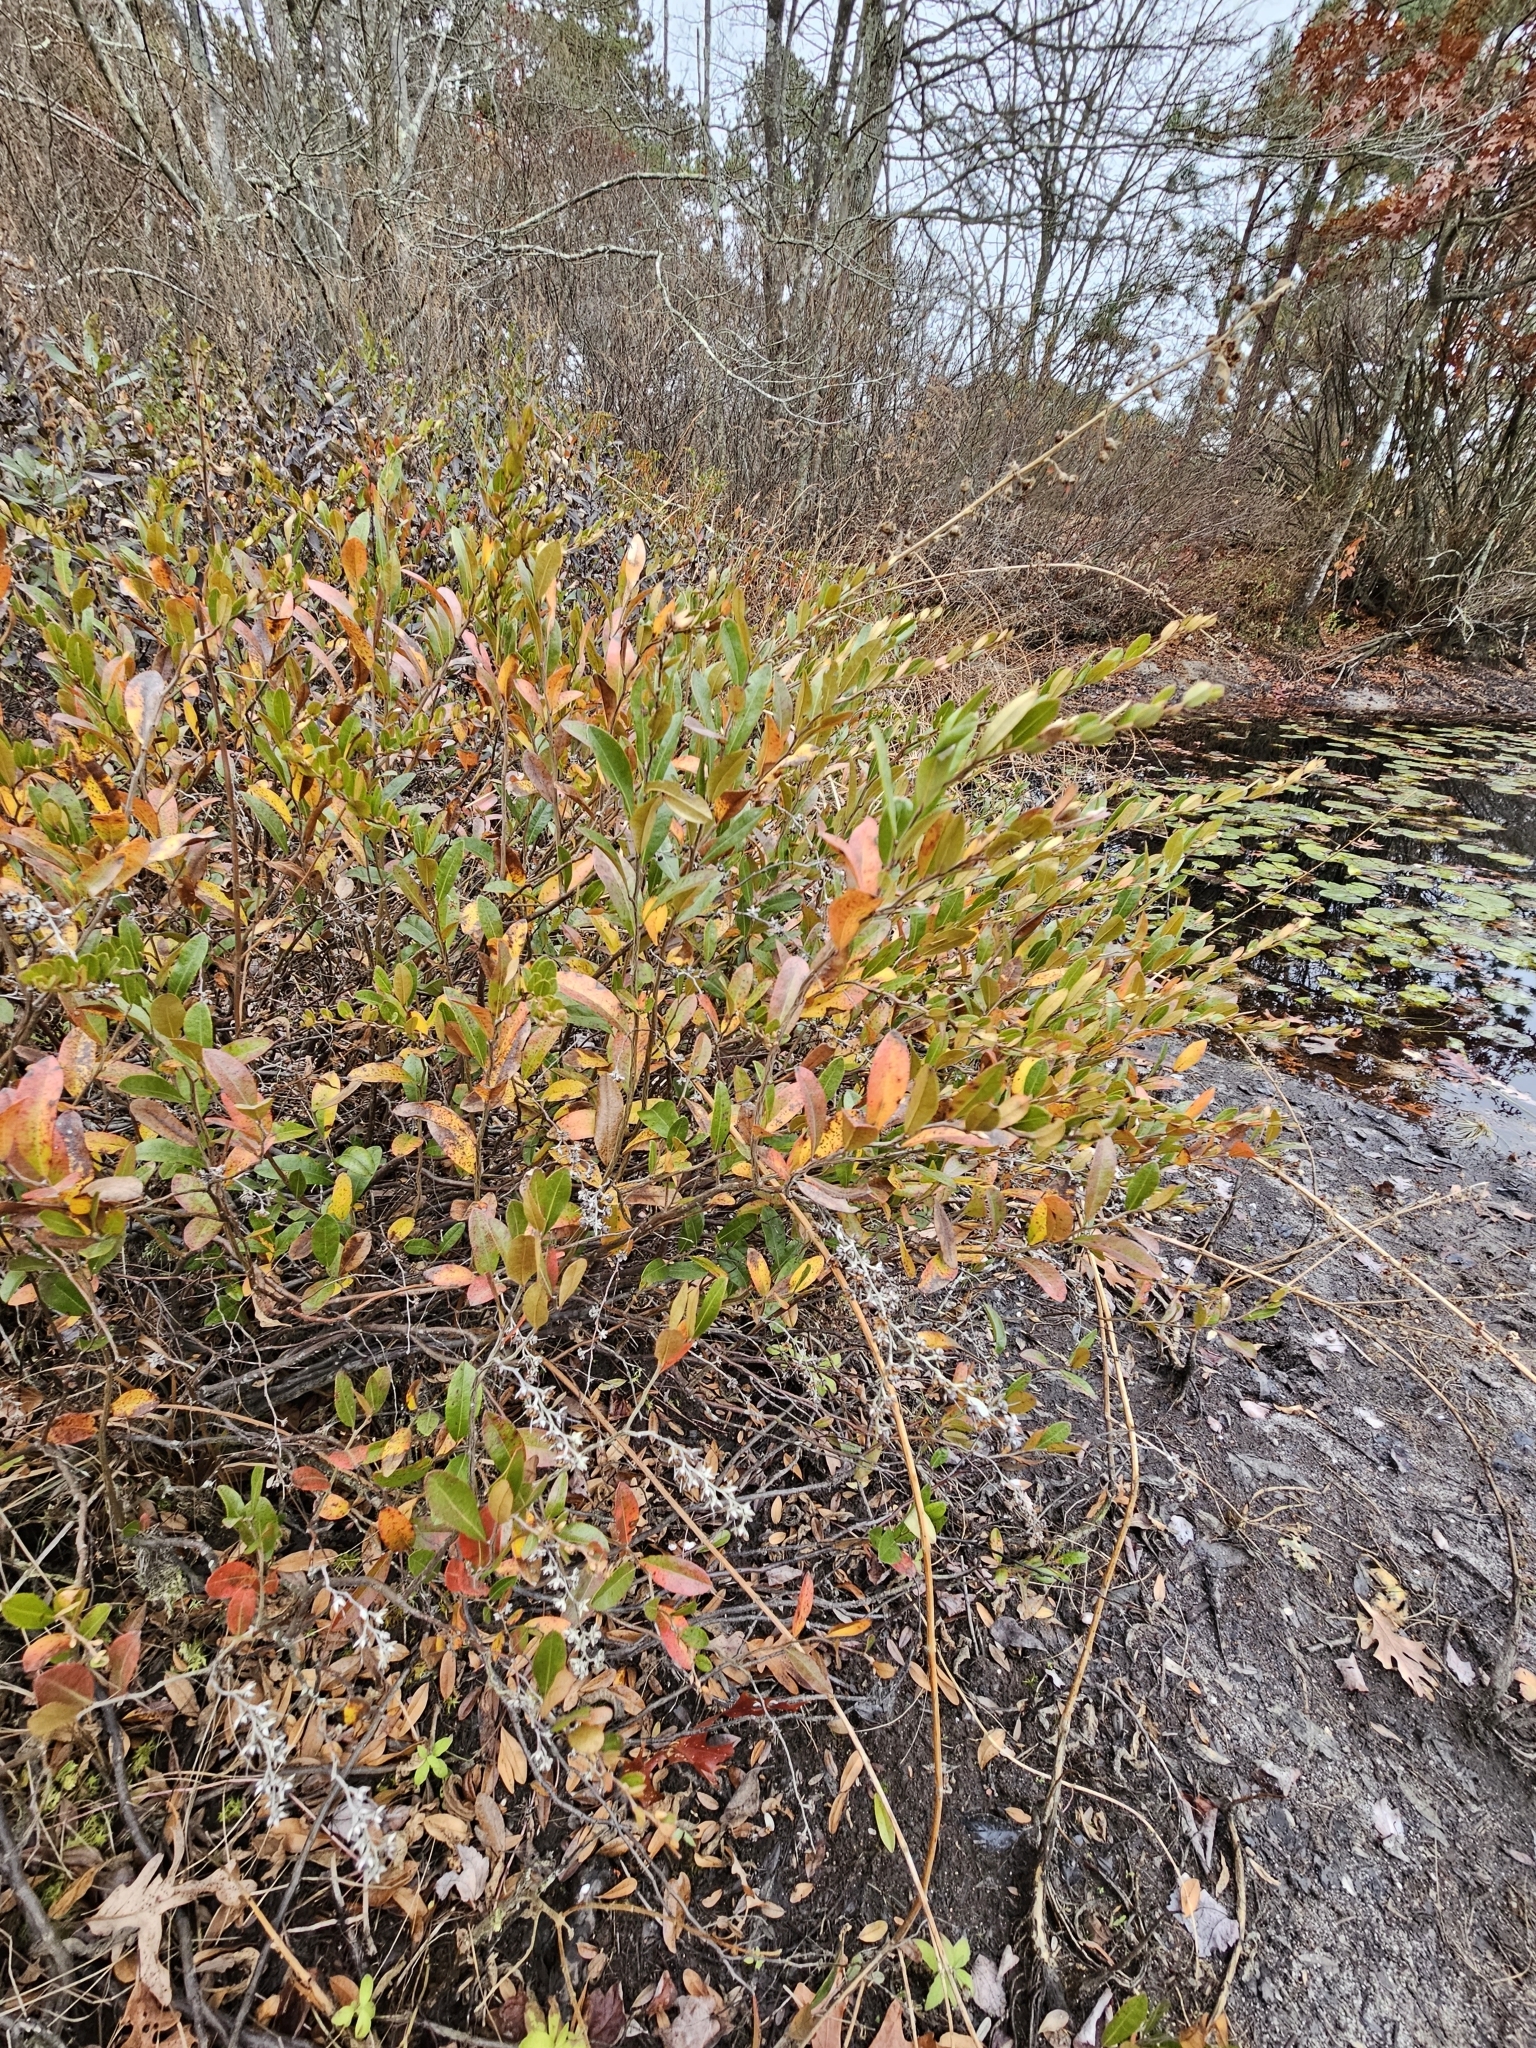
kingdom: Plantae
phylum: Tracheophyta
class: Magnoliopsida
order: Ericales
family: Ericaceae
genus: Chamaedaphne
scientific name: Chamaedaphne calyculata
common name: Leatherleaf
